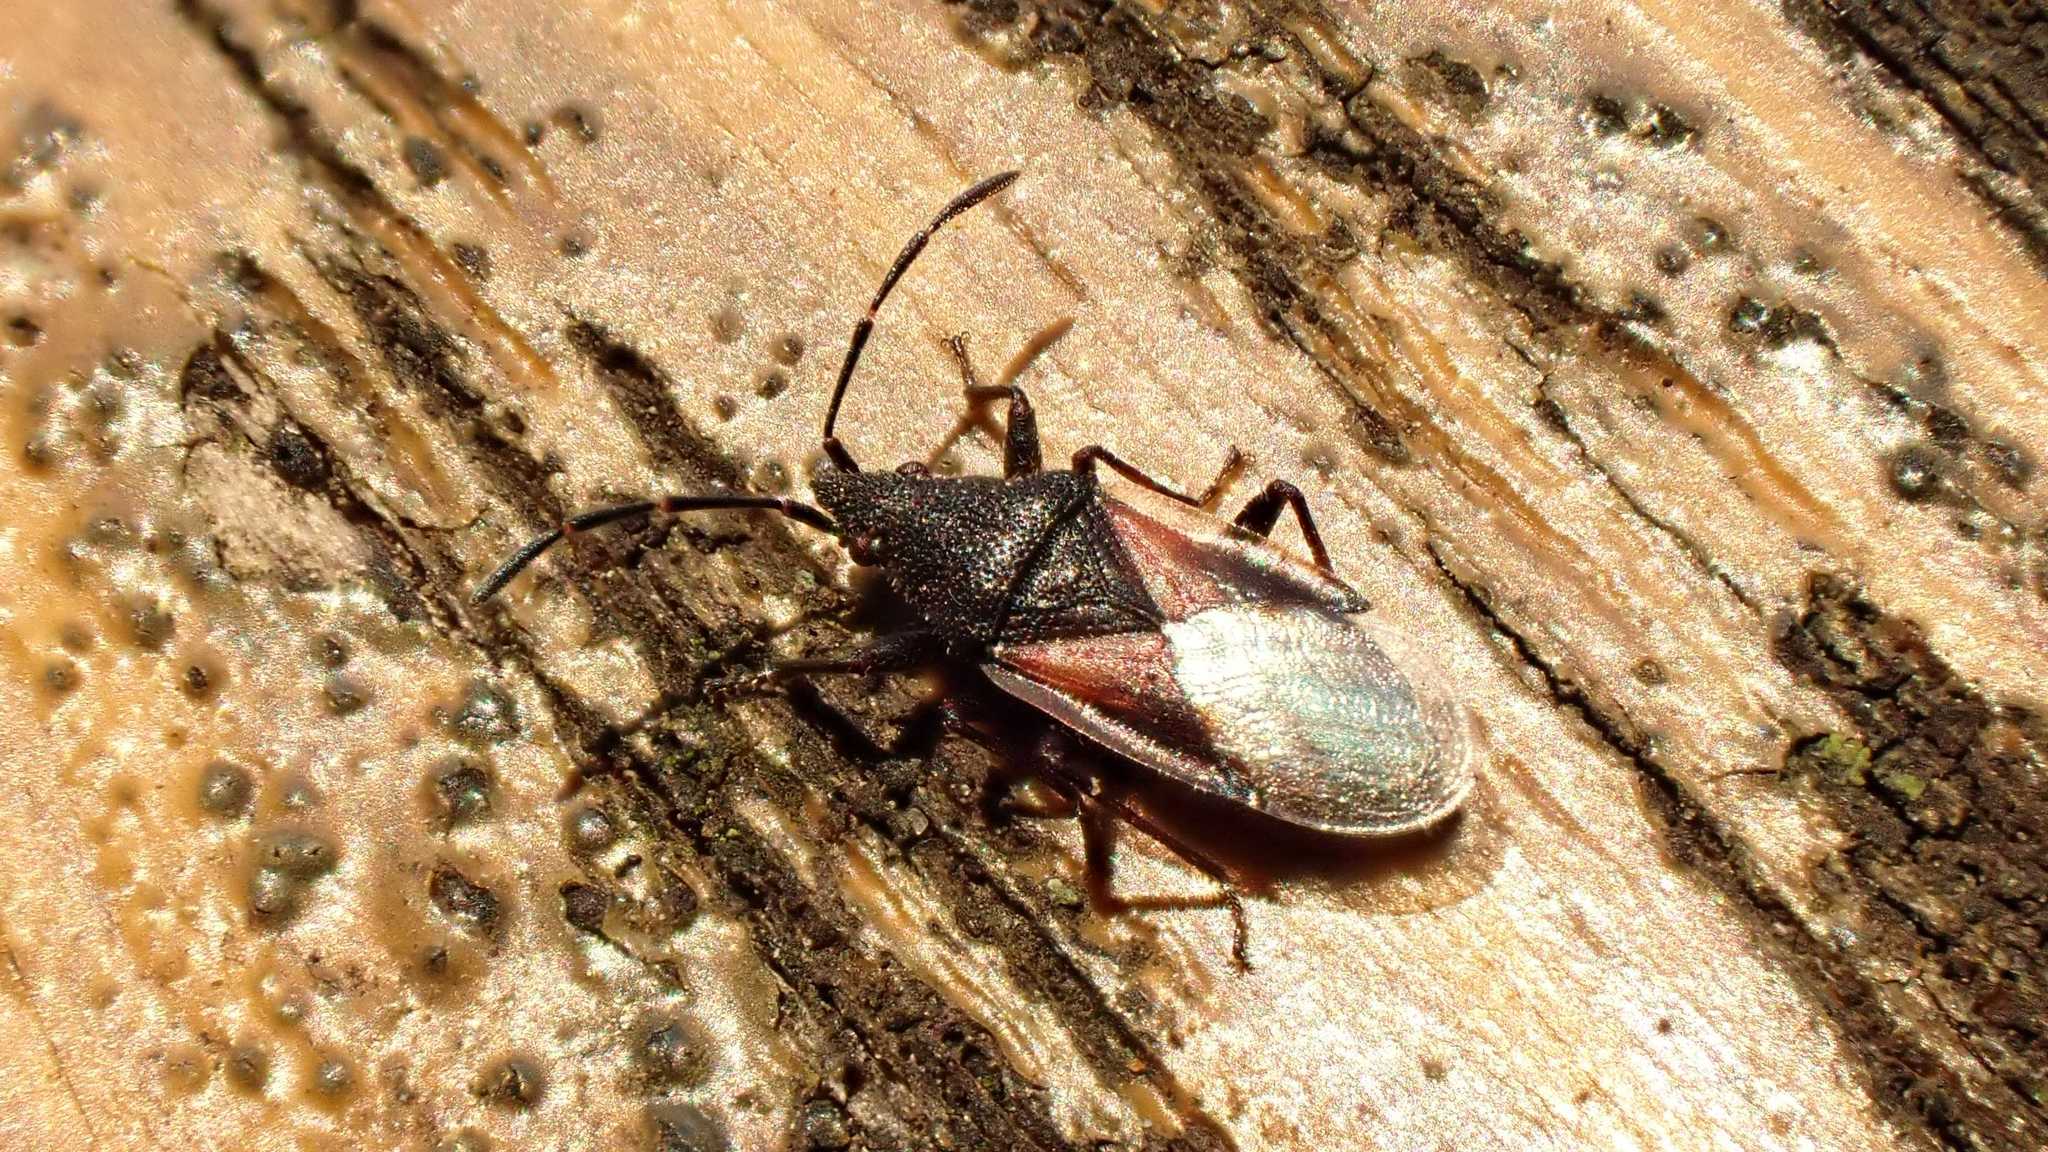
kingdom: Animalia
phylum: Arthropoda
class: Insecta
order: Hemiptera
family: Oxycarenidae
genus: Oxycarenus
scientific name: Oxycarenus lavaterae
